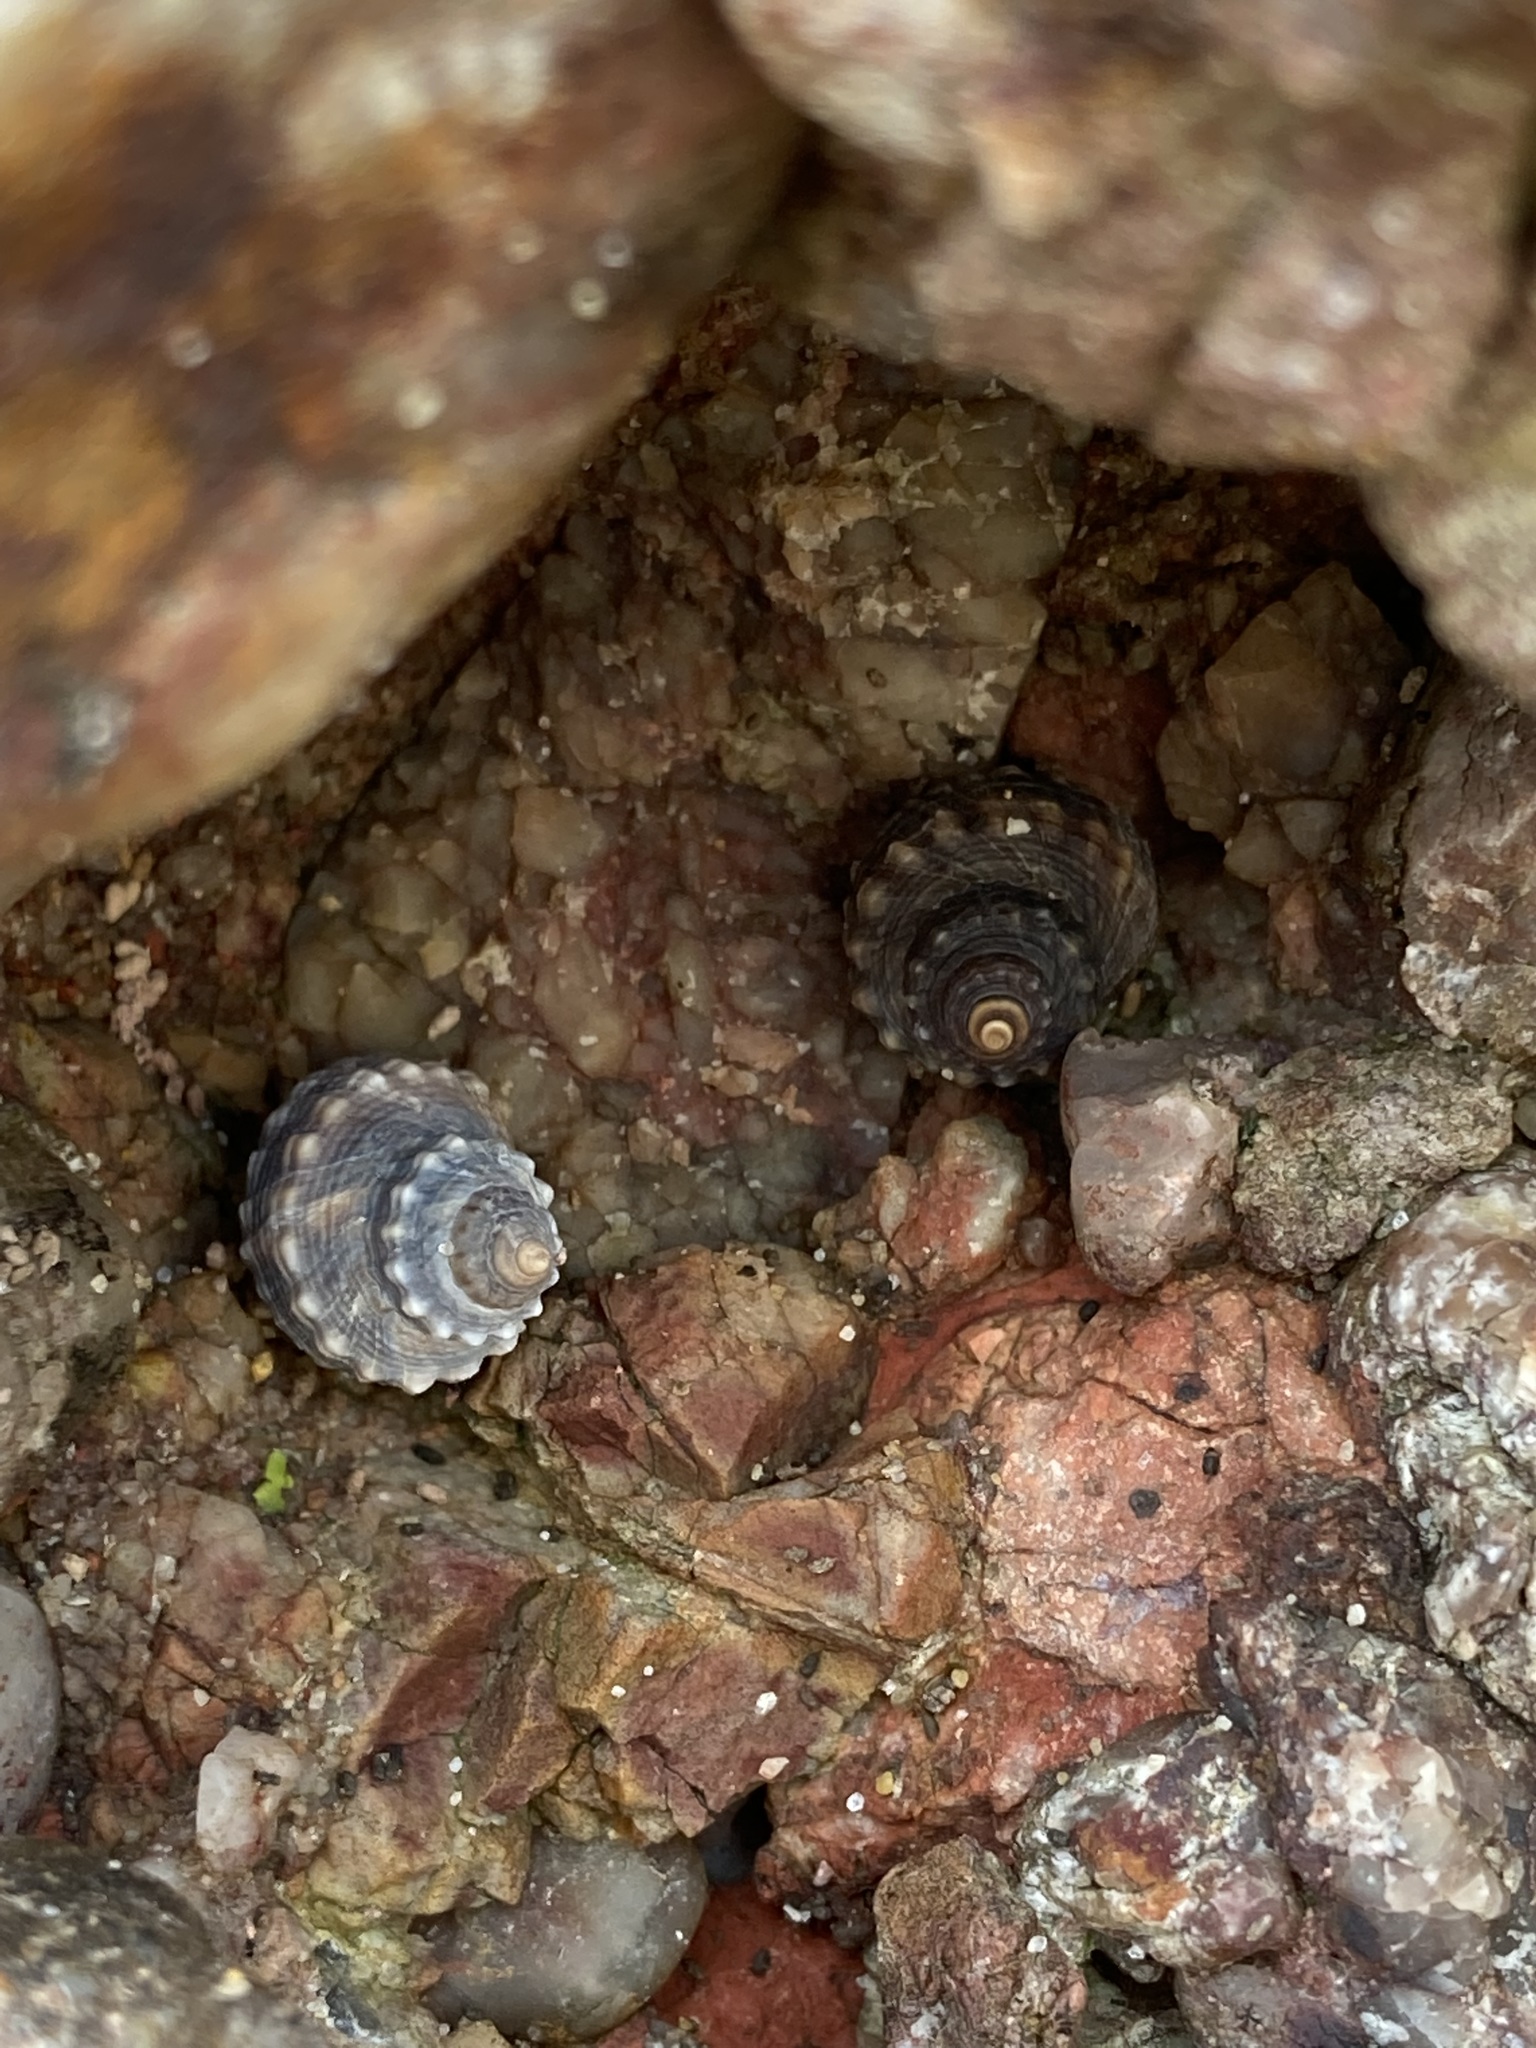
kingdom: Animalia
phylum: Mollusca
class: Gastropoda
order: Littorinimorpha
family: Littorinidae
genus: Nodilittorina
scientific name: Nodilittorina pyramidalis
